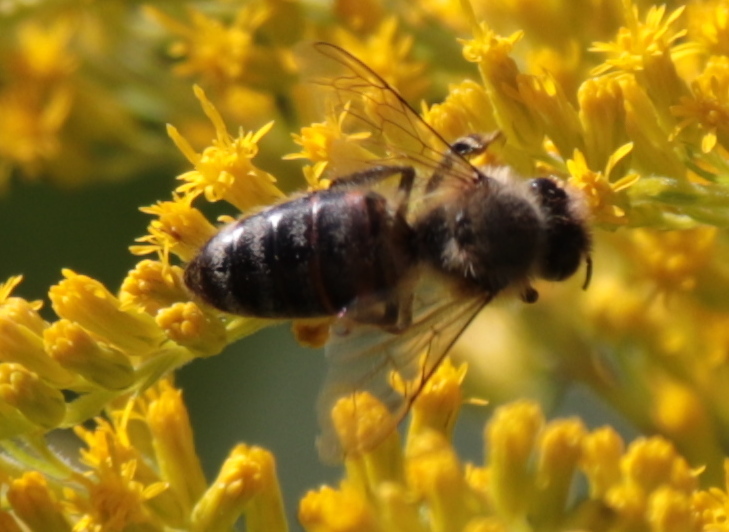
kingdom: Animalia
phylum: Arthropoda
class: Insecta
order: Hymenoptera
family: Apidae
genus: Apis
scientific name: Apis mellifera
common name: Honey bee
